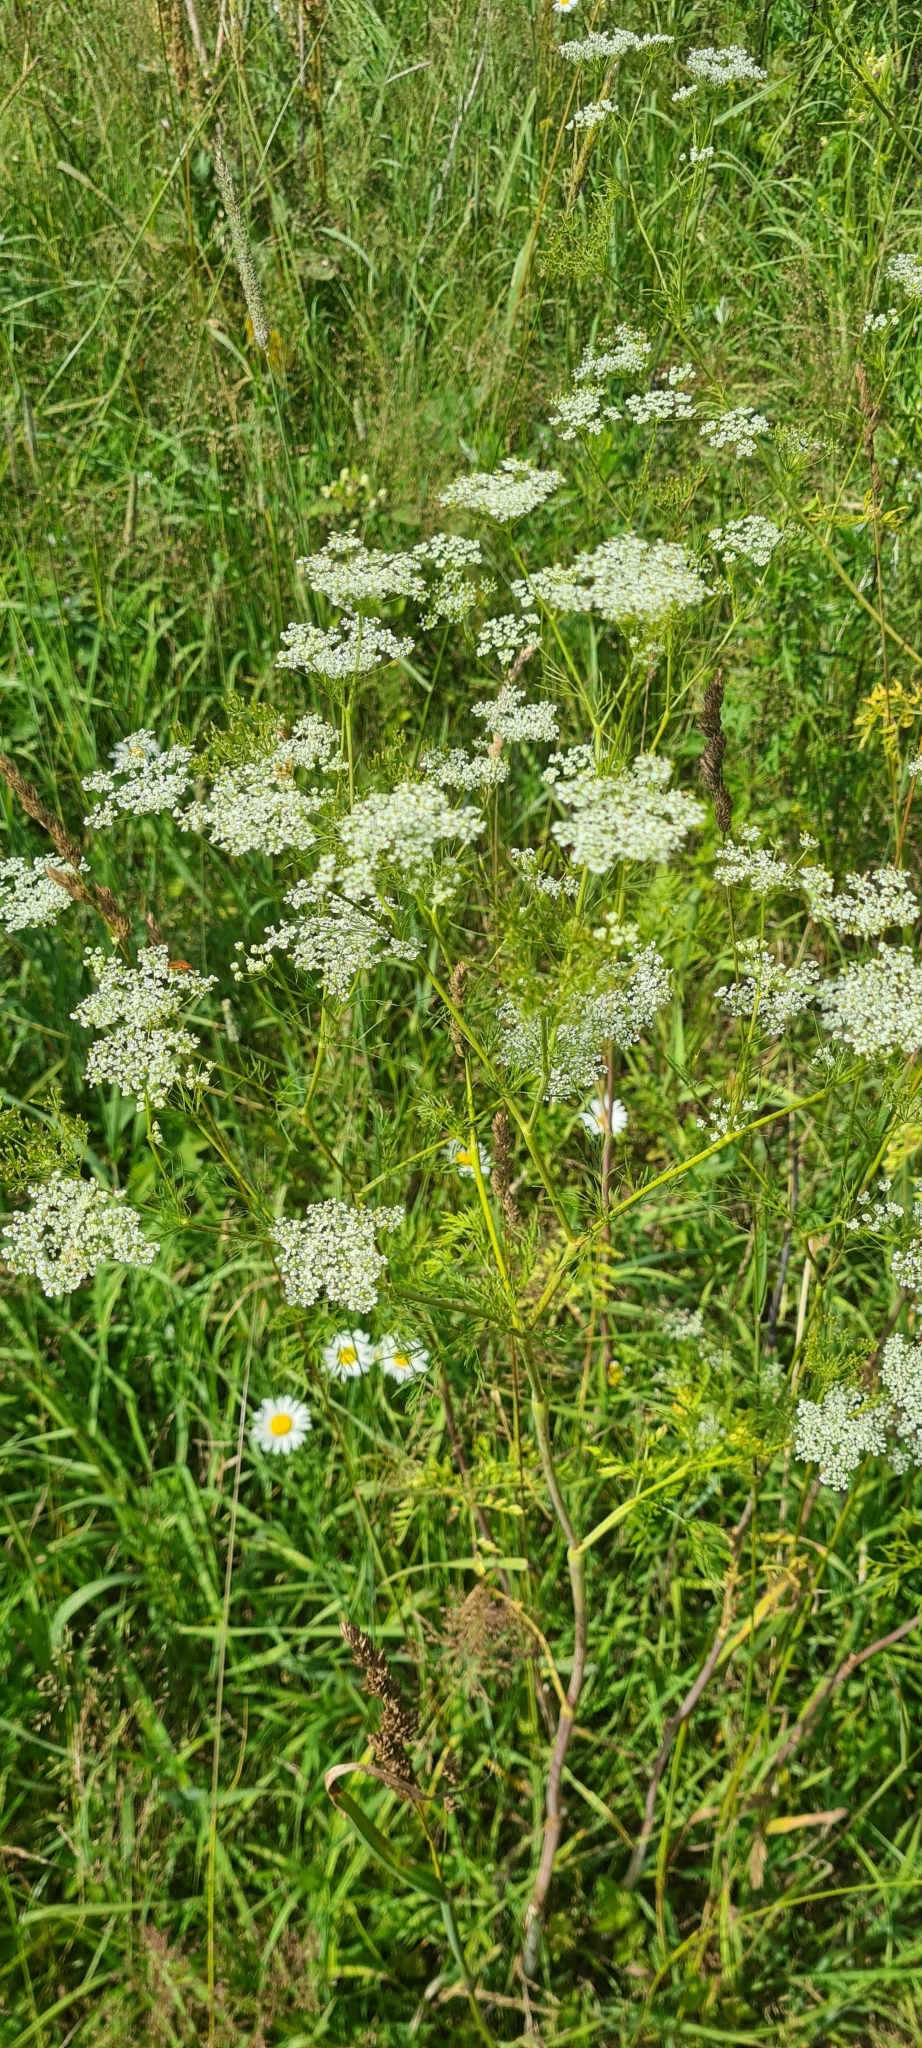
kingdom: Plantae
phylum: Tracheophyta
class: Magnoliopsida
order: Apiales
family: Apiaceae
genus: Chaerophyllum
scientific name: Chaerophyllum bulbosum
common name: Bulbous chervil
